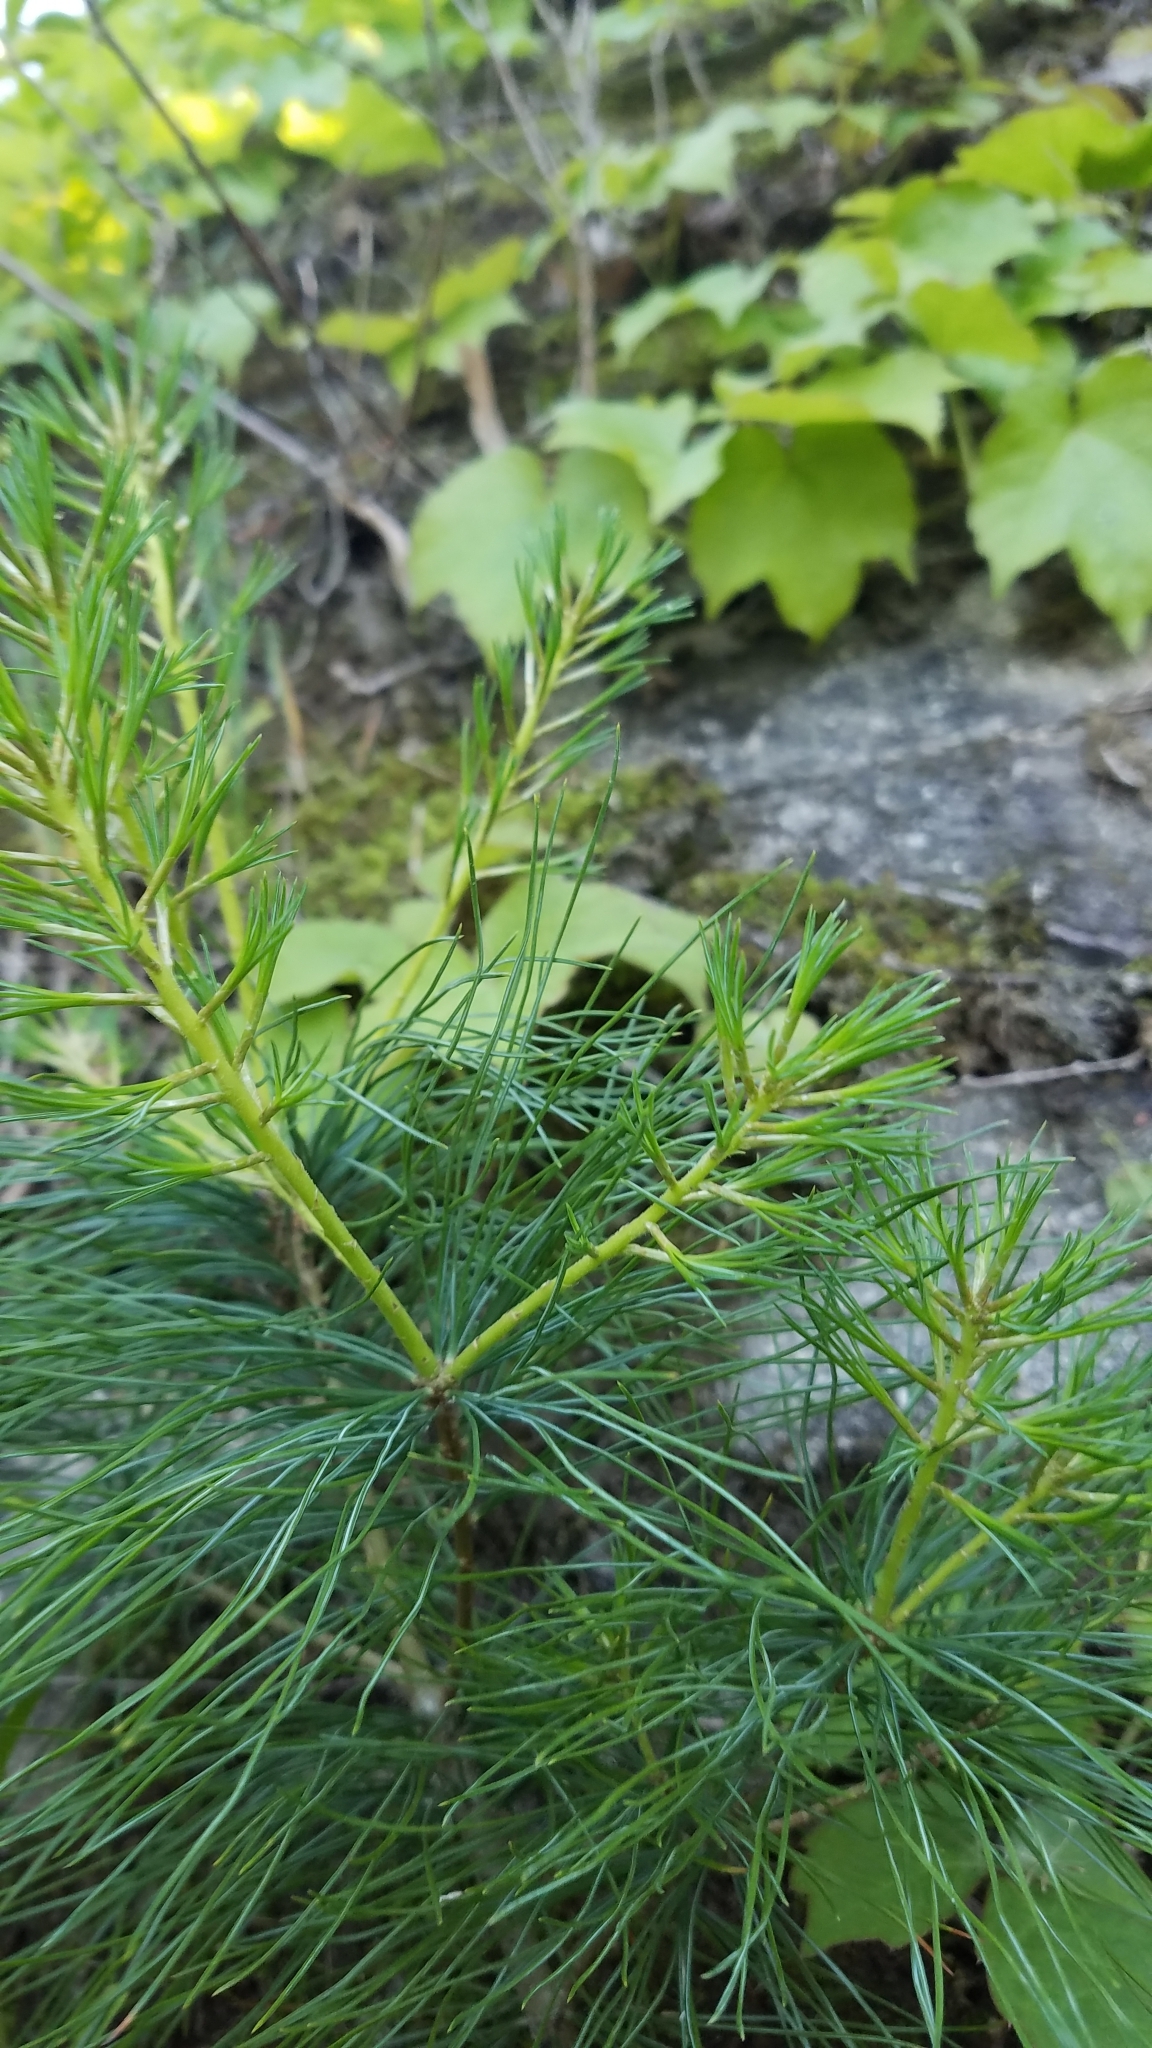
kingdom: Plantae
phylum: Tracheophyta
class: Pinopsida
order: Pinales
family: Pinaceae
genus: Pinus
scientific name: Pinus strobus
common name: Weymouth pine
